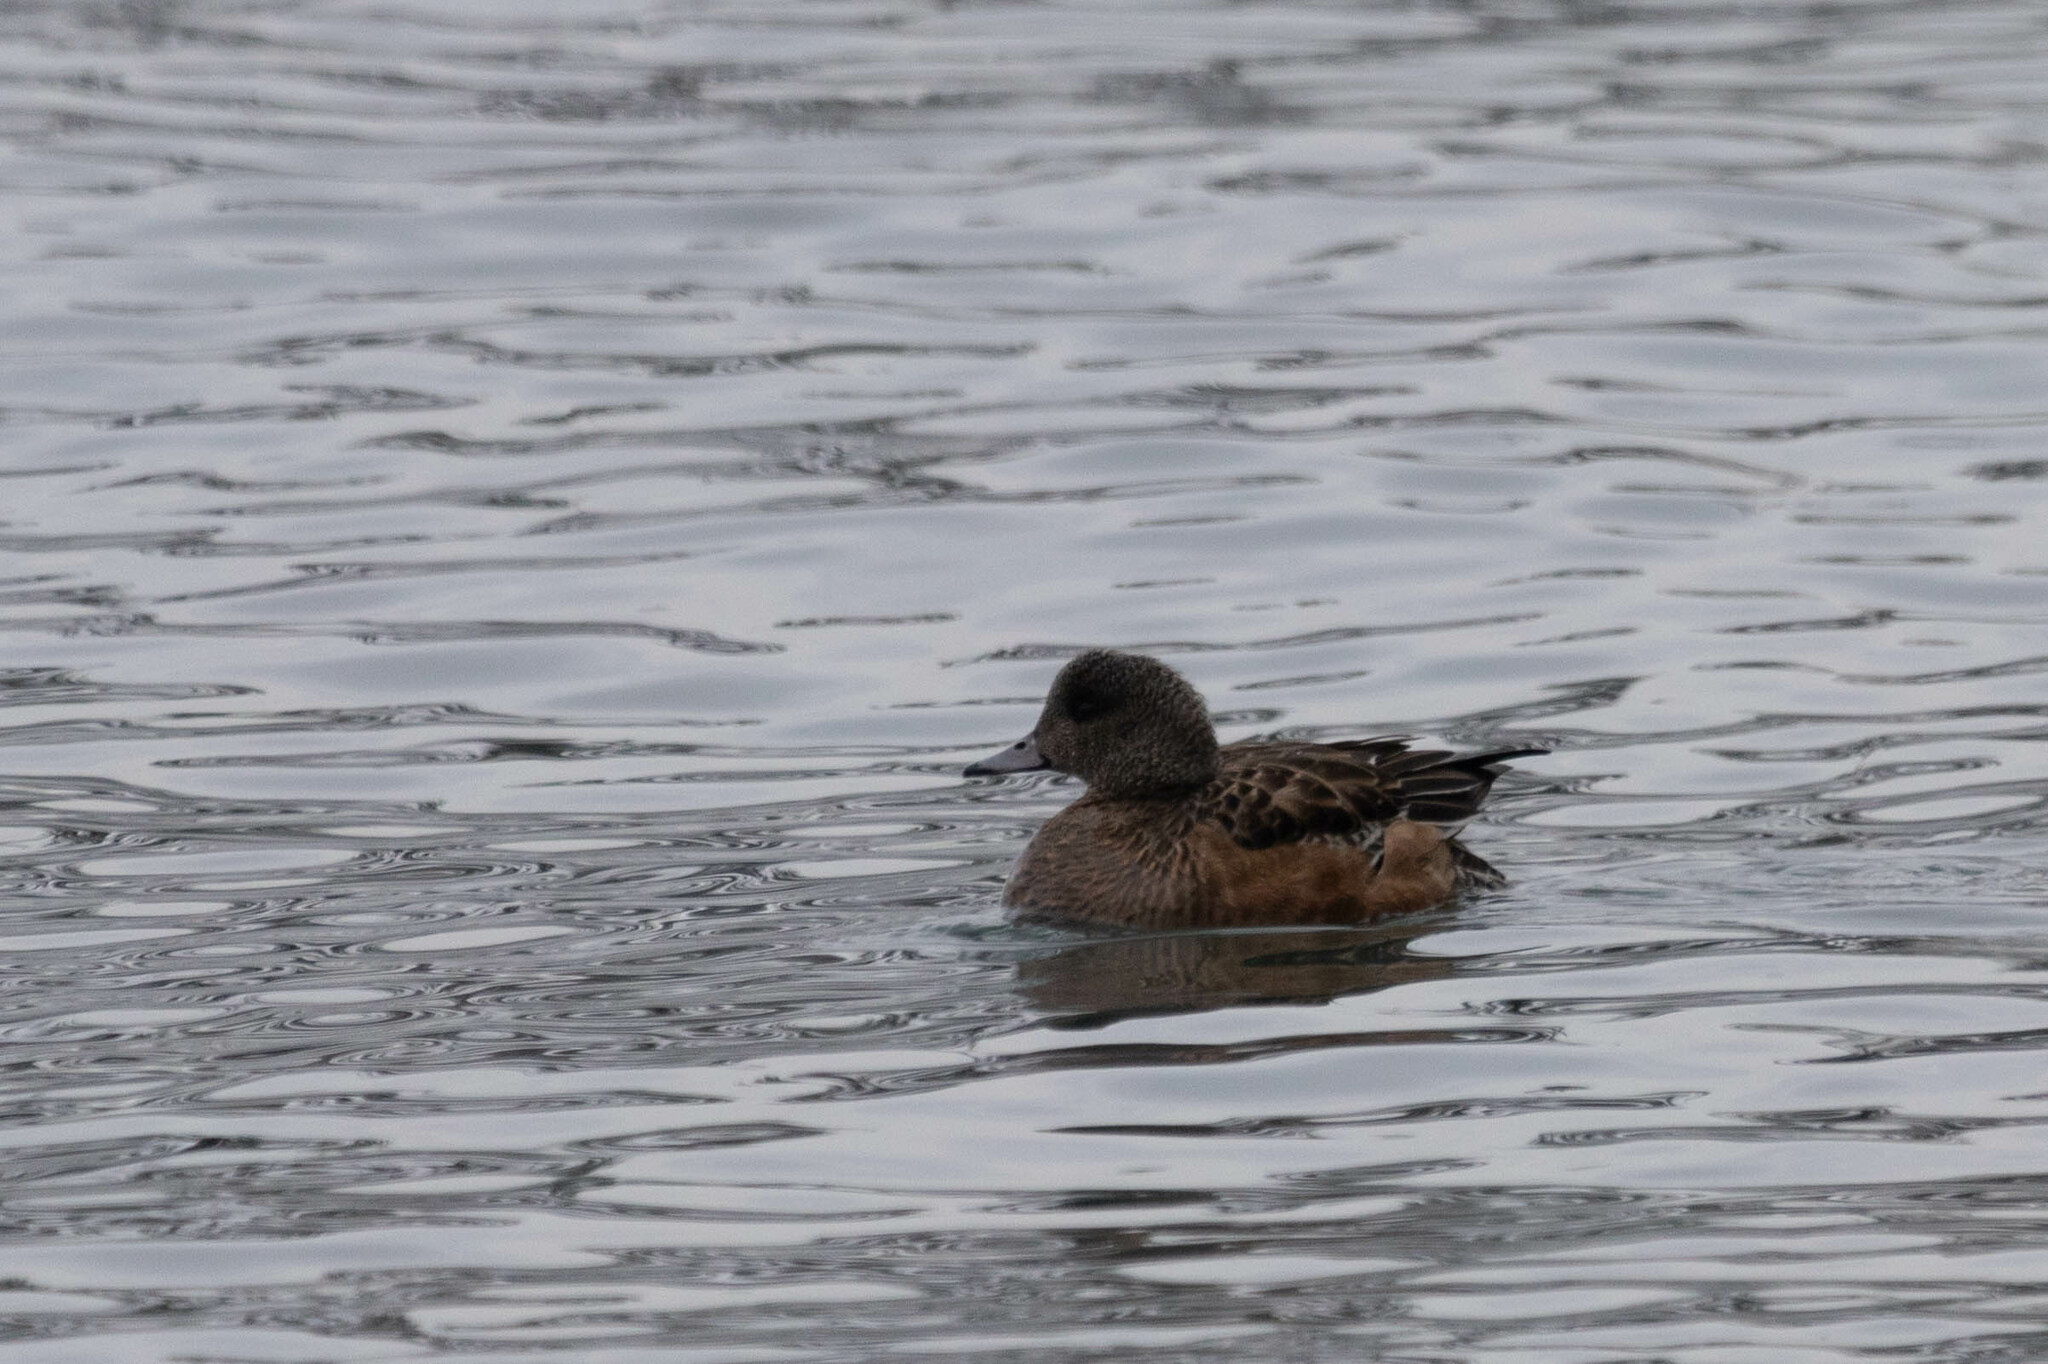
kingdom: Animalia
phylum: Chordata
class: Aves
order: Anseriformes
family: Anatidae
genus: Mareca
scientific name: Mareca americana
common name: American wigeon
